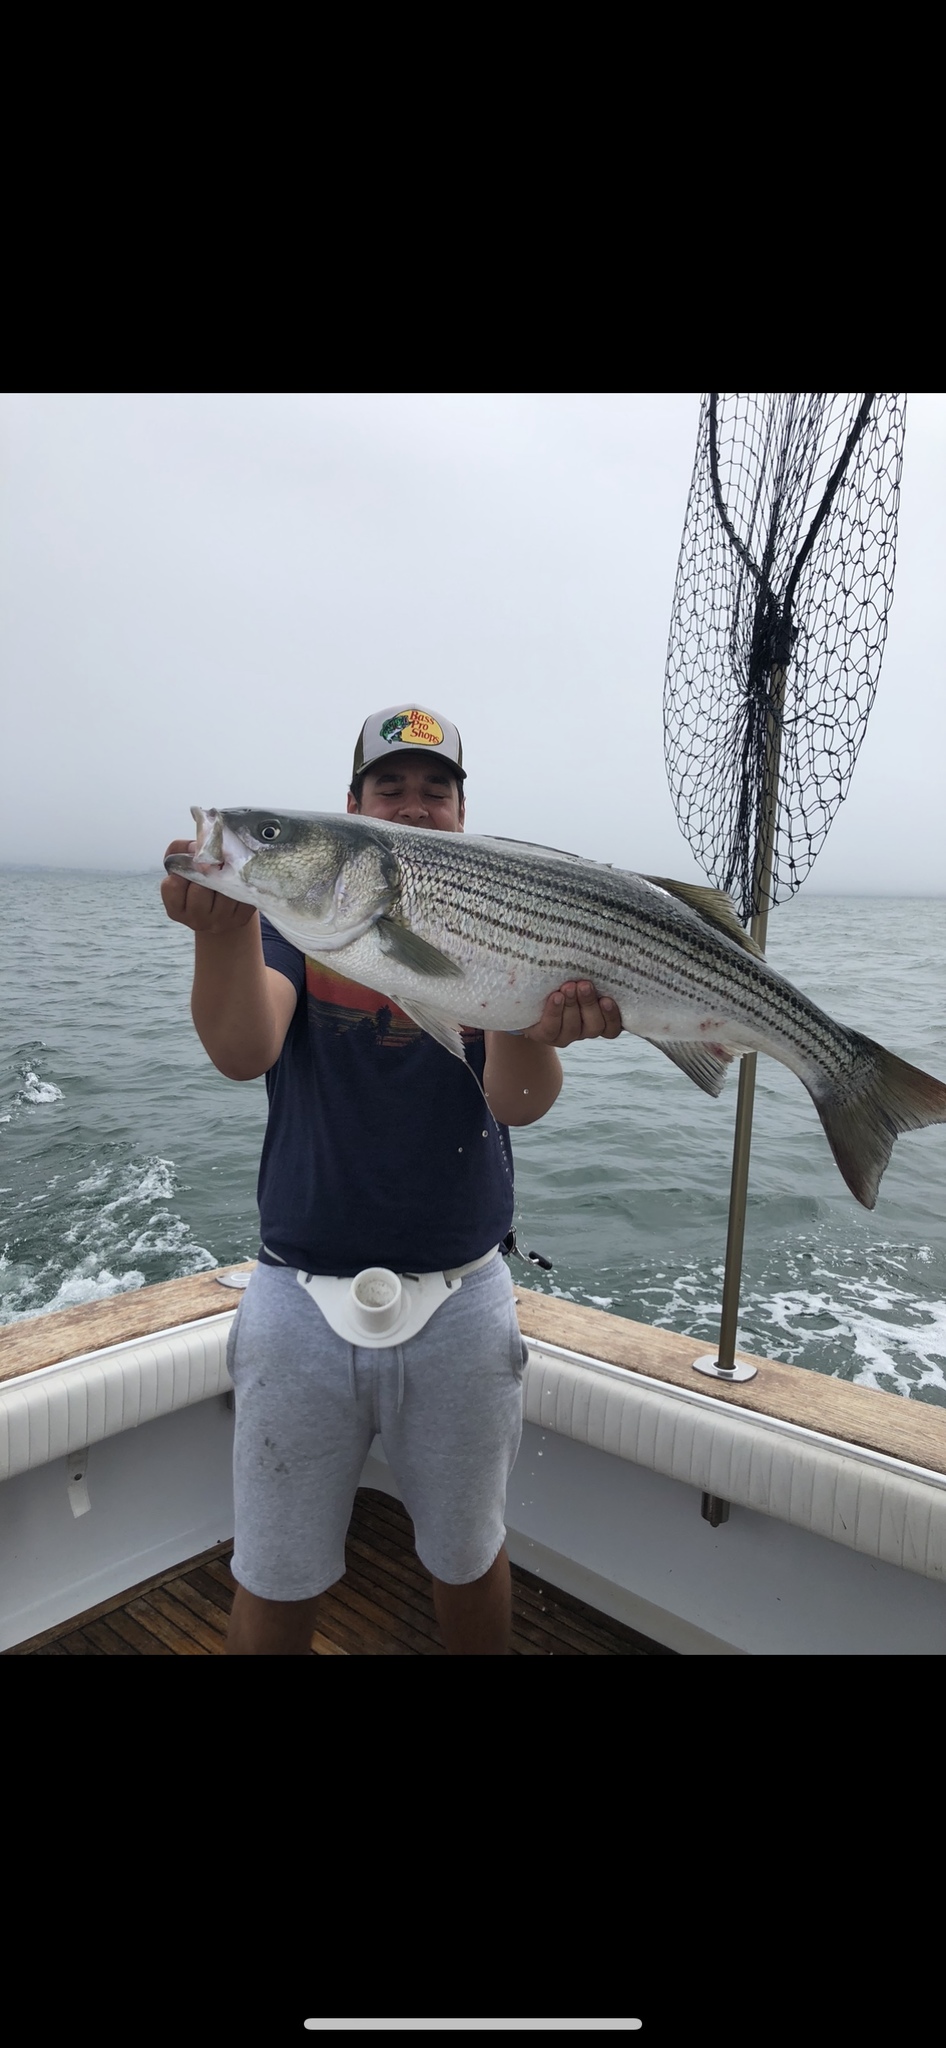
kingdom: Animalia
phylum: Chordata
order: Perciformes
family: Moronidae
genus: Morone
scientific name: Morone saxatilis
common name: Striped bass
